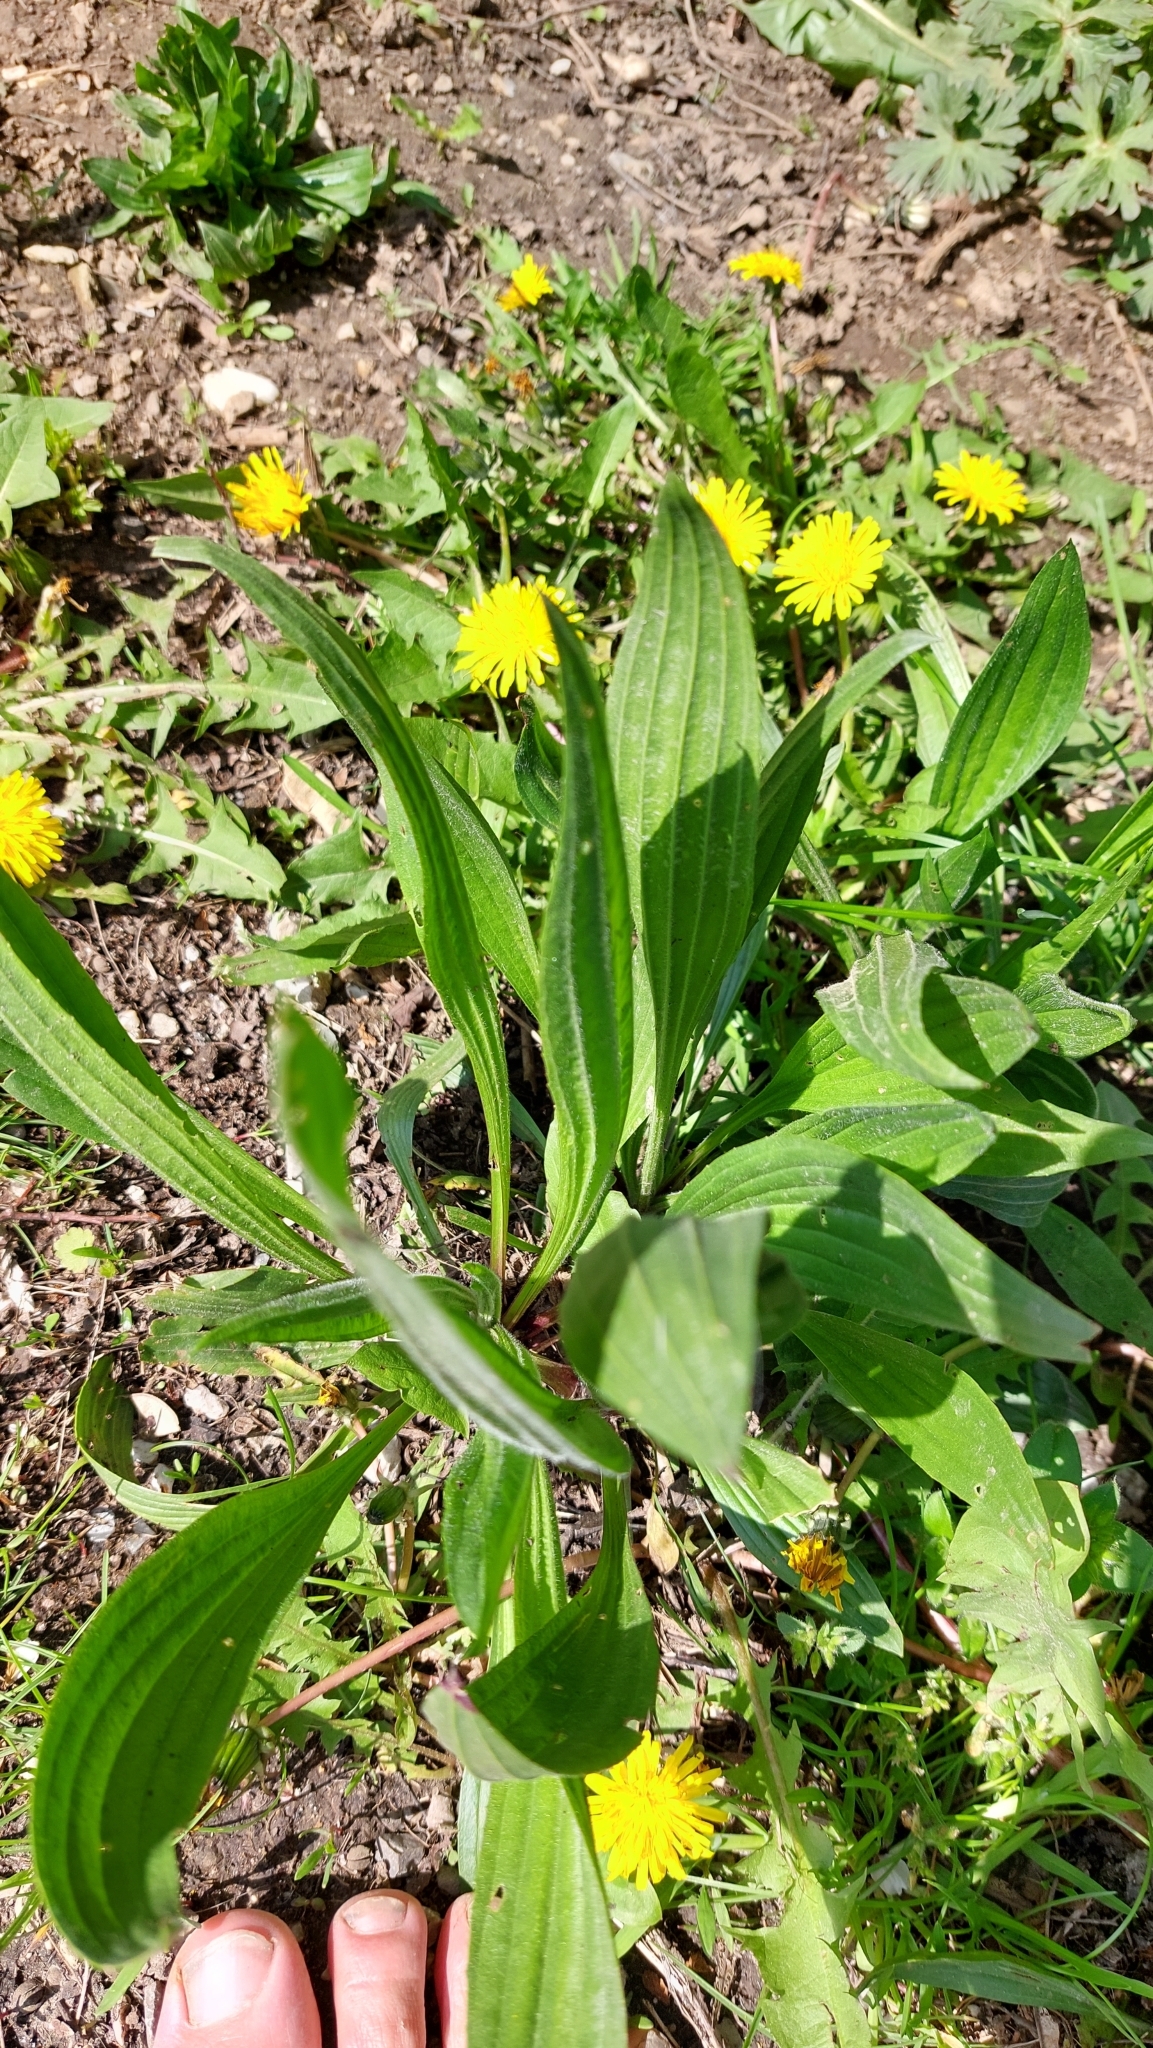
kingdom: Plantae
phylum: Tracheophyta
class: Magnoliopsida
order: Lamiales
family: Plantaginaceae
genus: Plantago
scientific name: Plantago lanceolata
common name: Ribwort plantain
